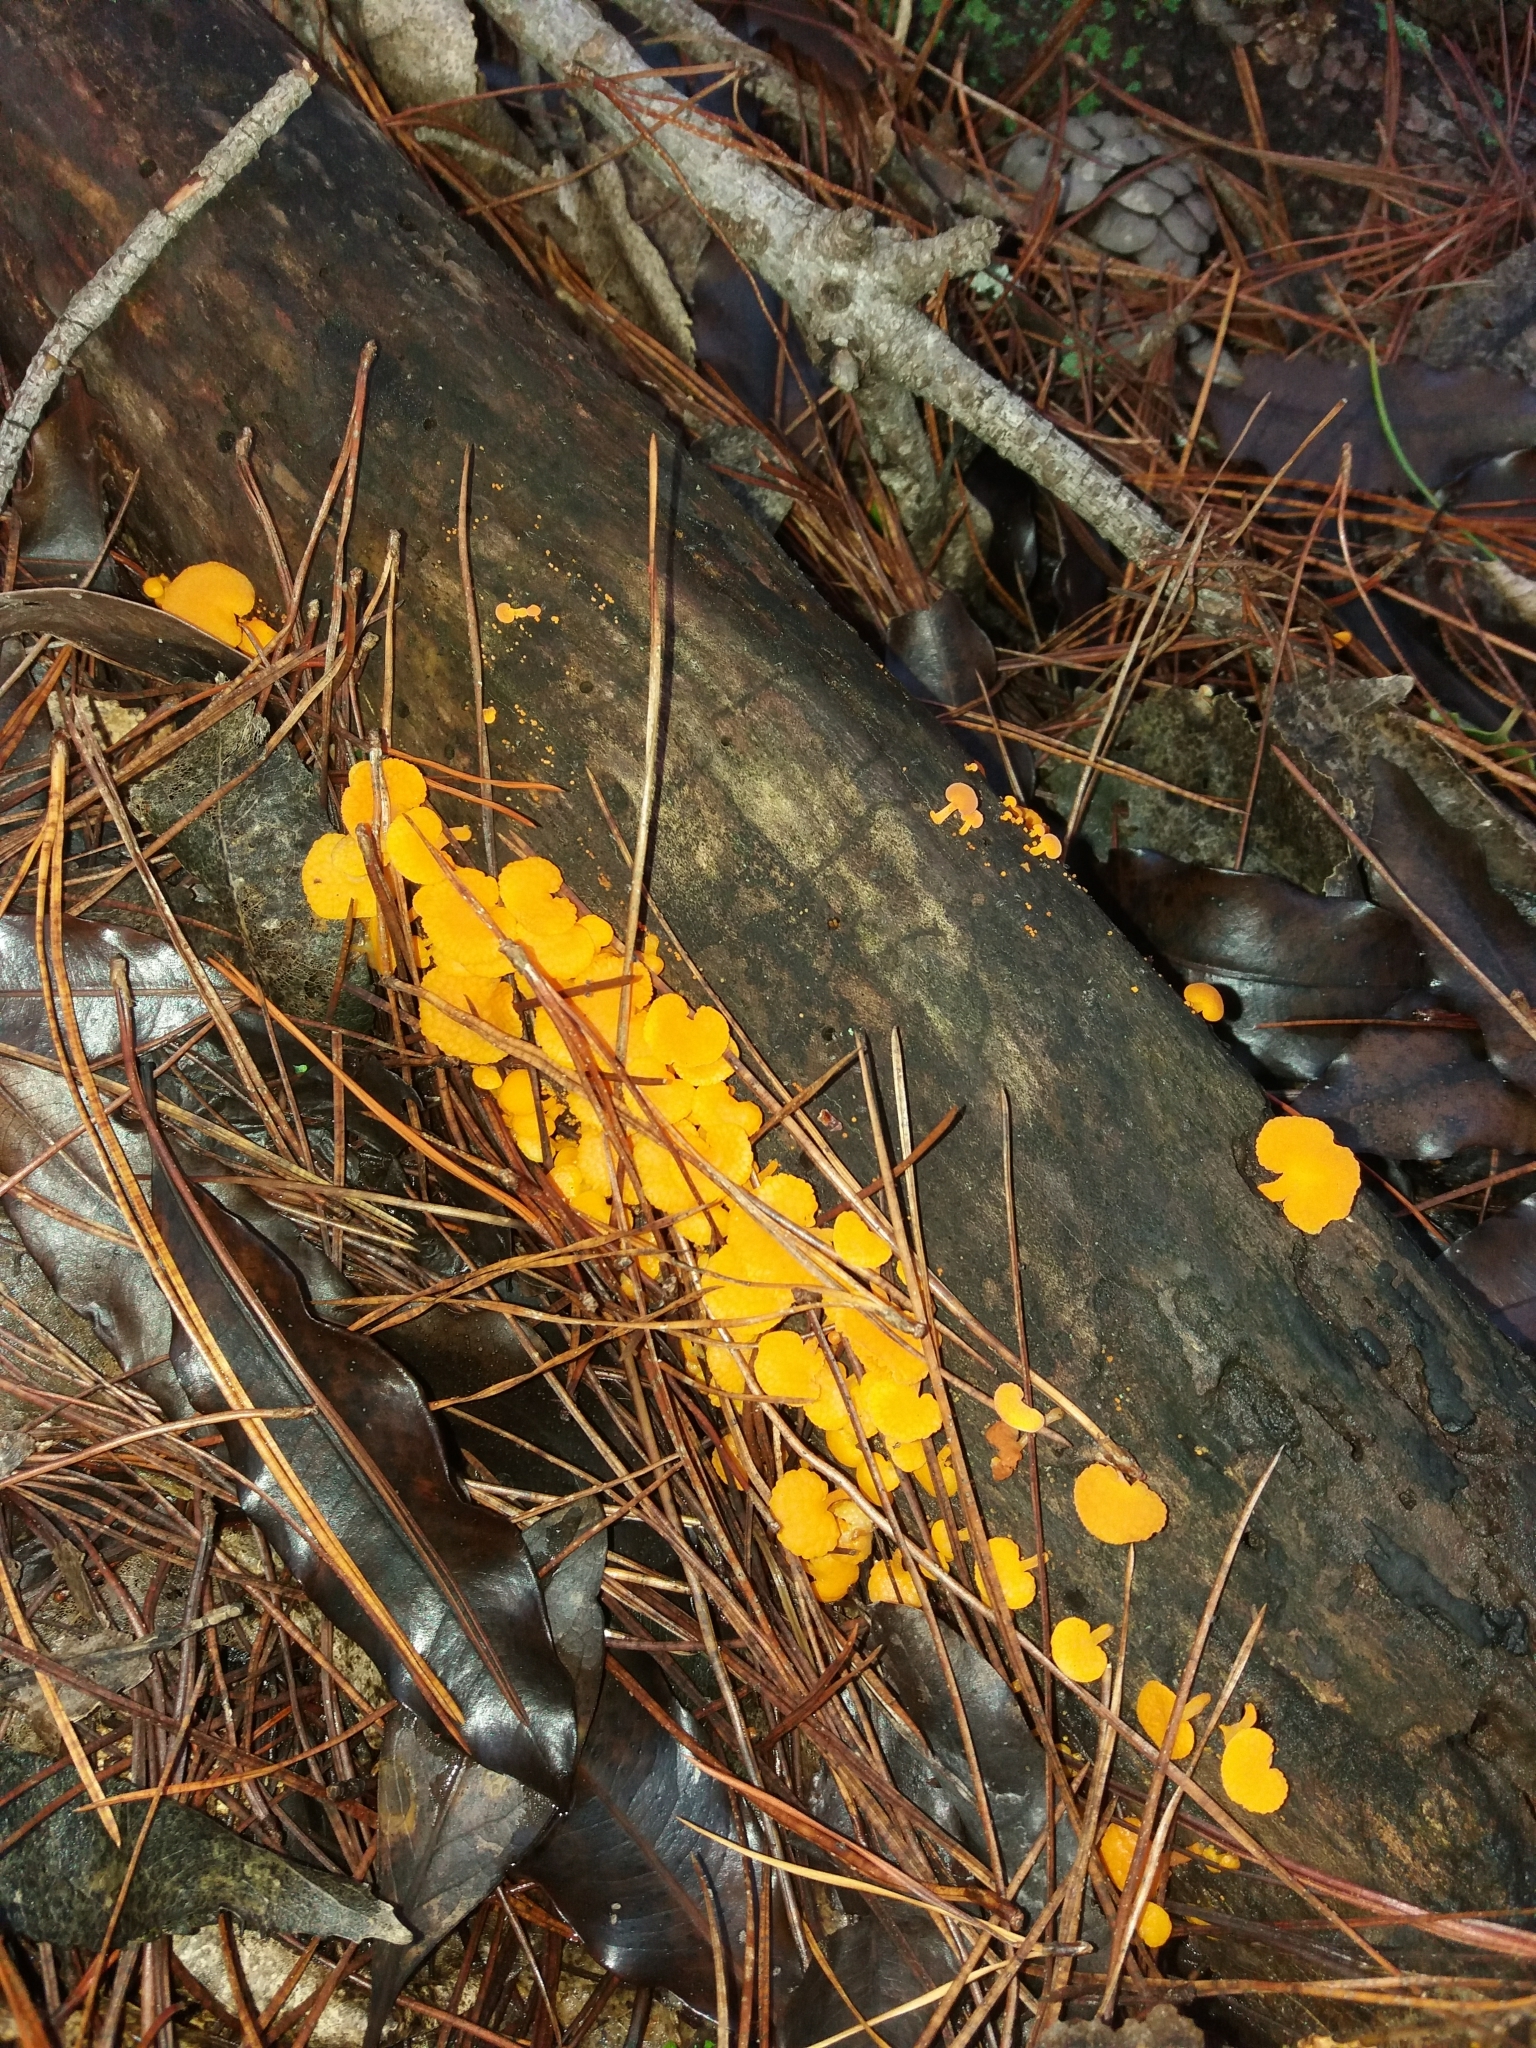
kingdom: Fungi
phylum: Basidiomycota
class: Agaricomycetes
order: Agaricales
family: Mycenaceae
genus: Favolaschia
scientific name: Favolaschia claudopus
